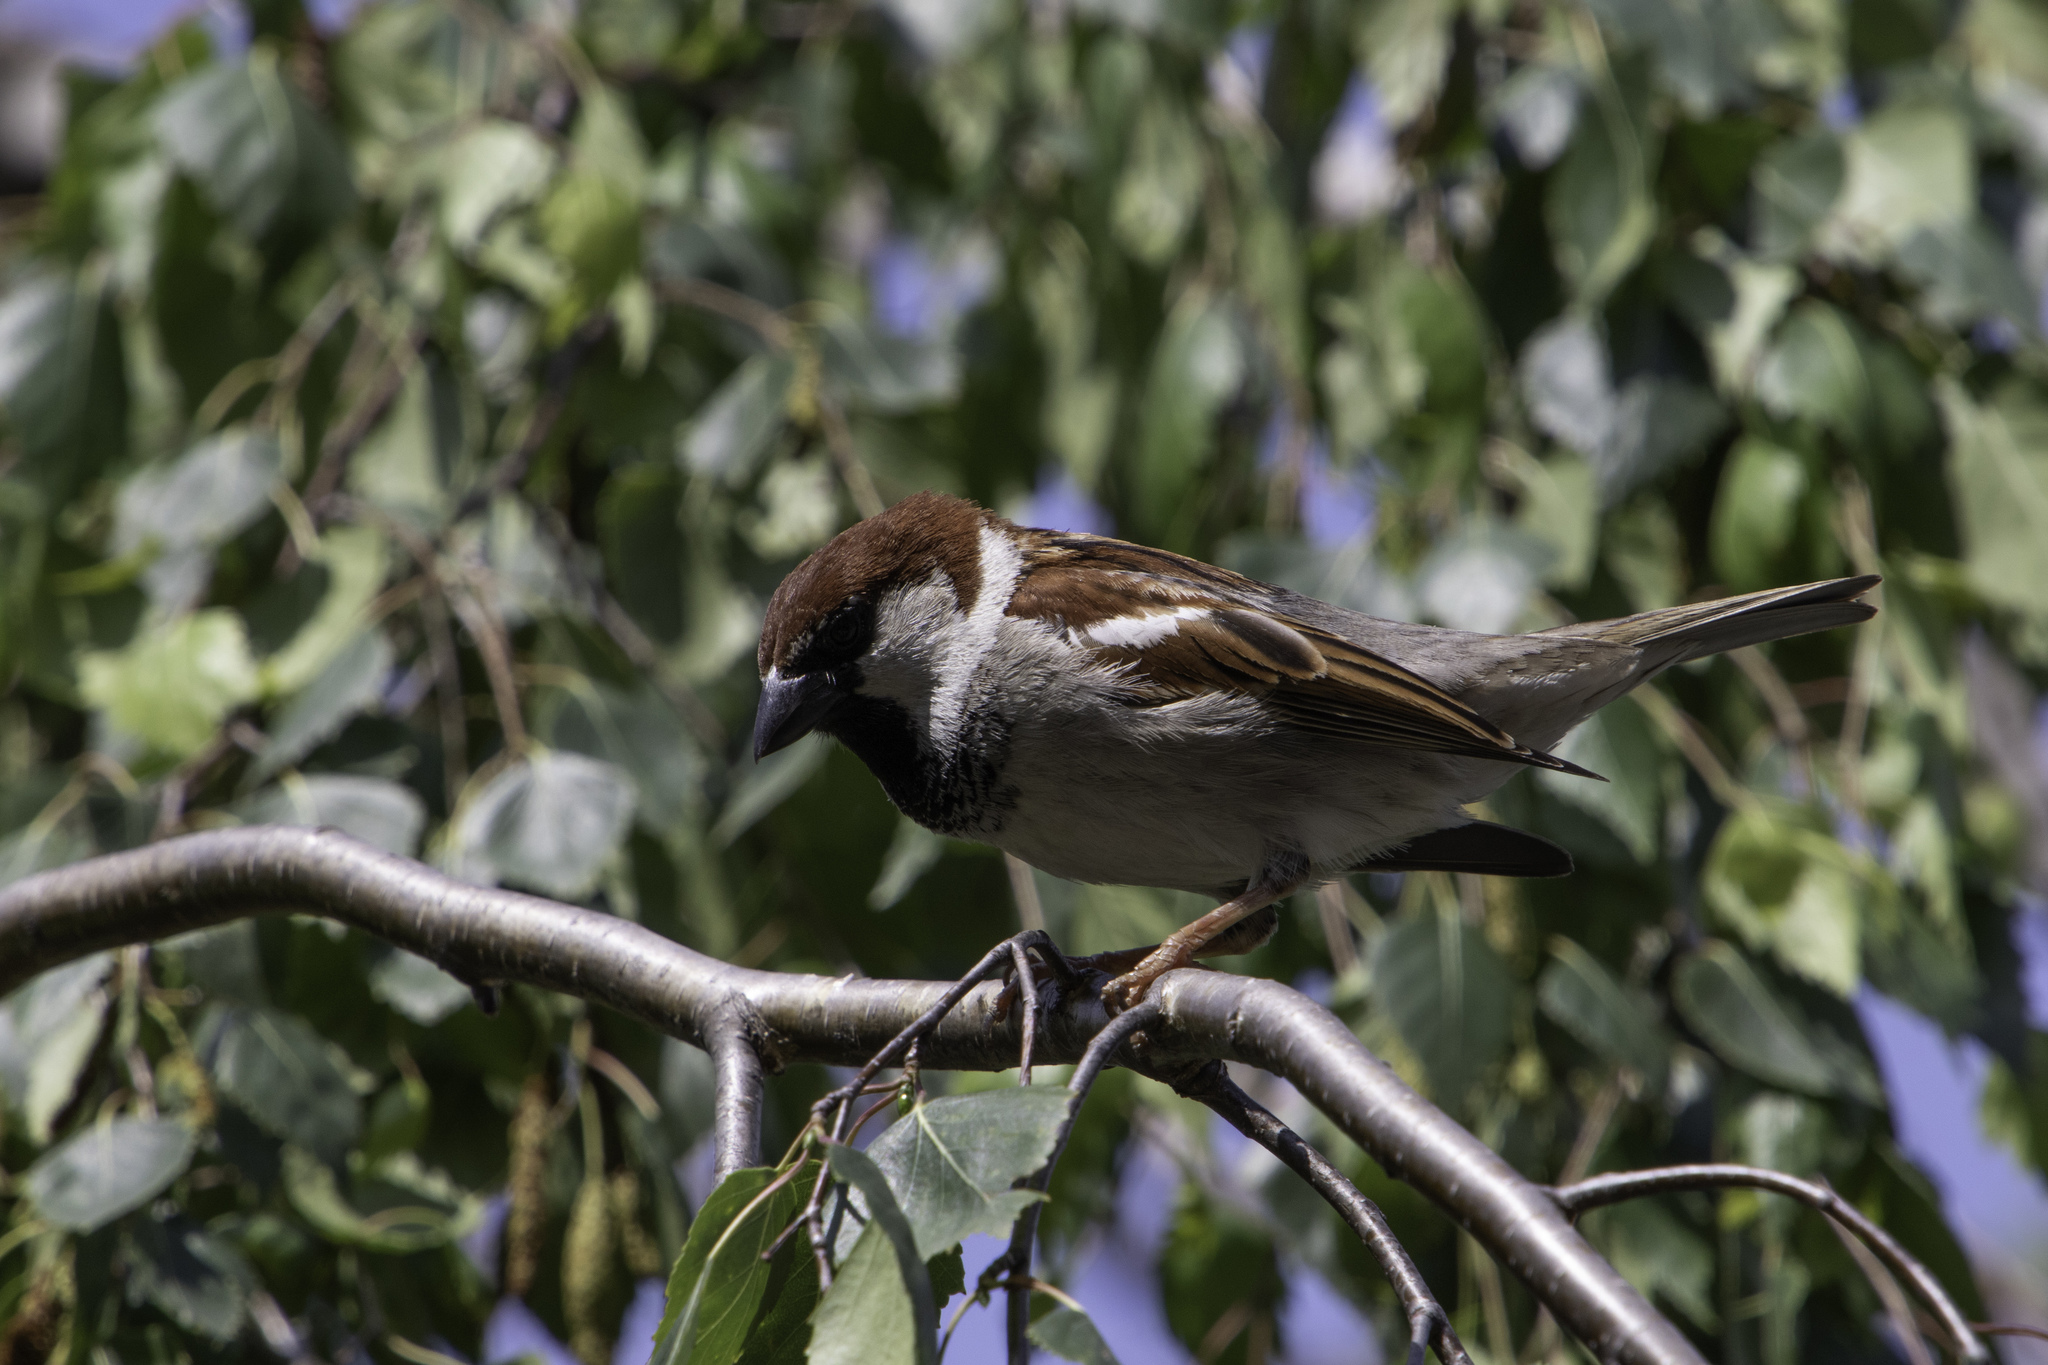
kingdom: Animalia
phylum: Chordata
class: Aves
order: Passeriformes
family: Passeridae
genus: Passer
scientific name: Passer italiae
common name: Italian sparrow
